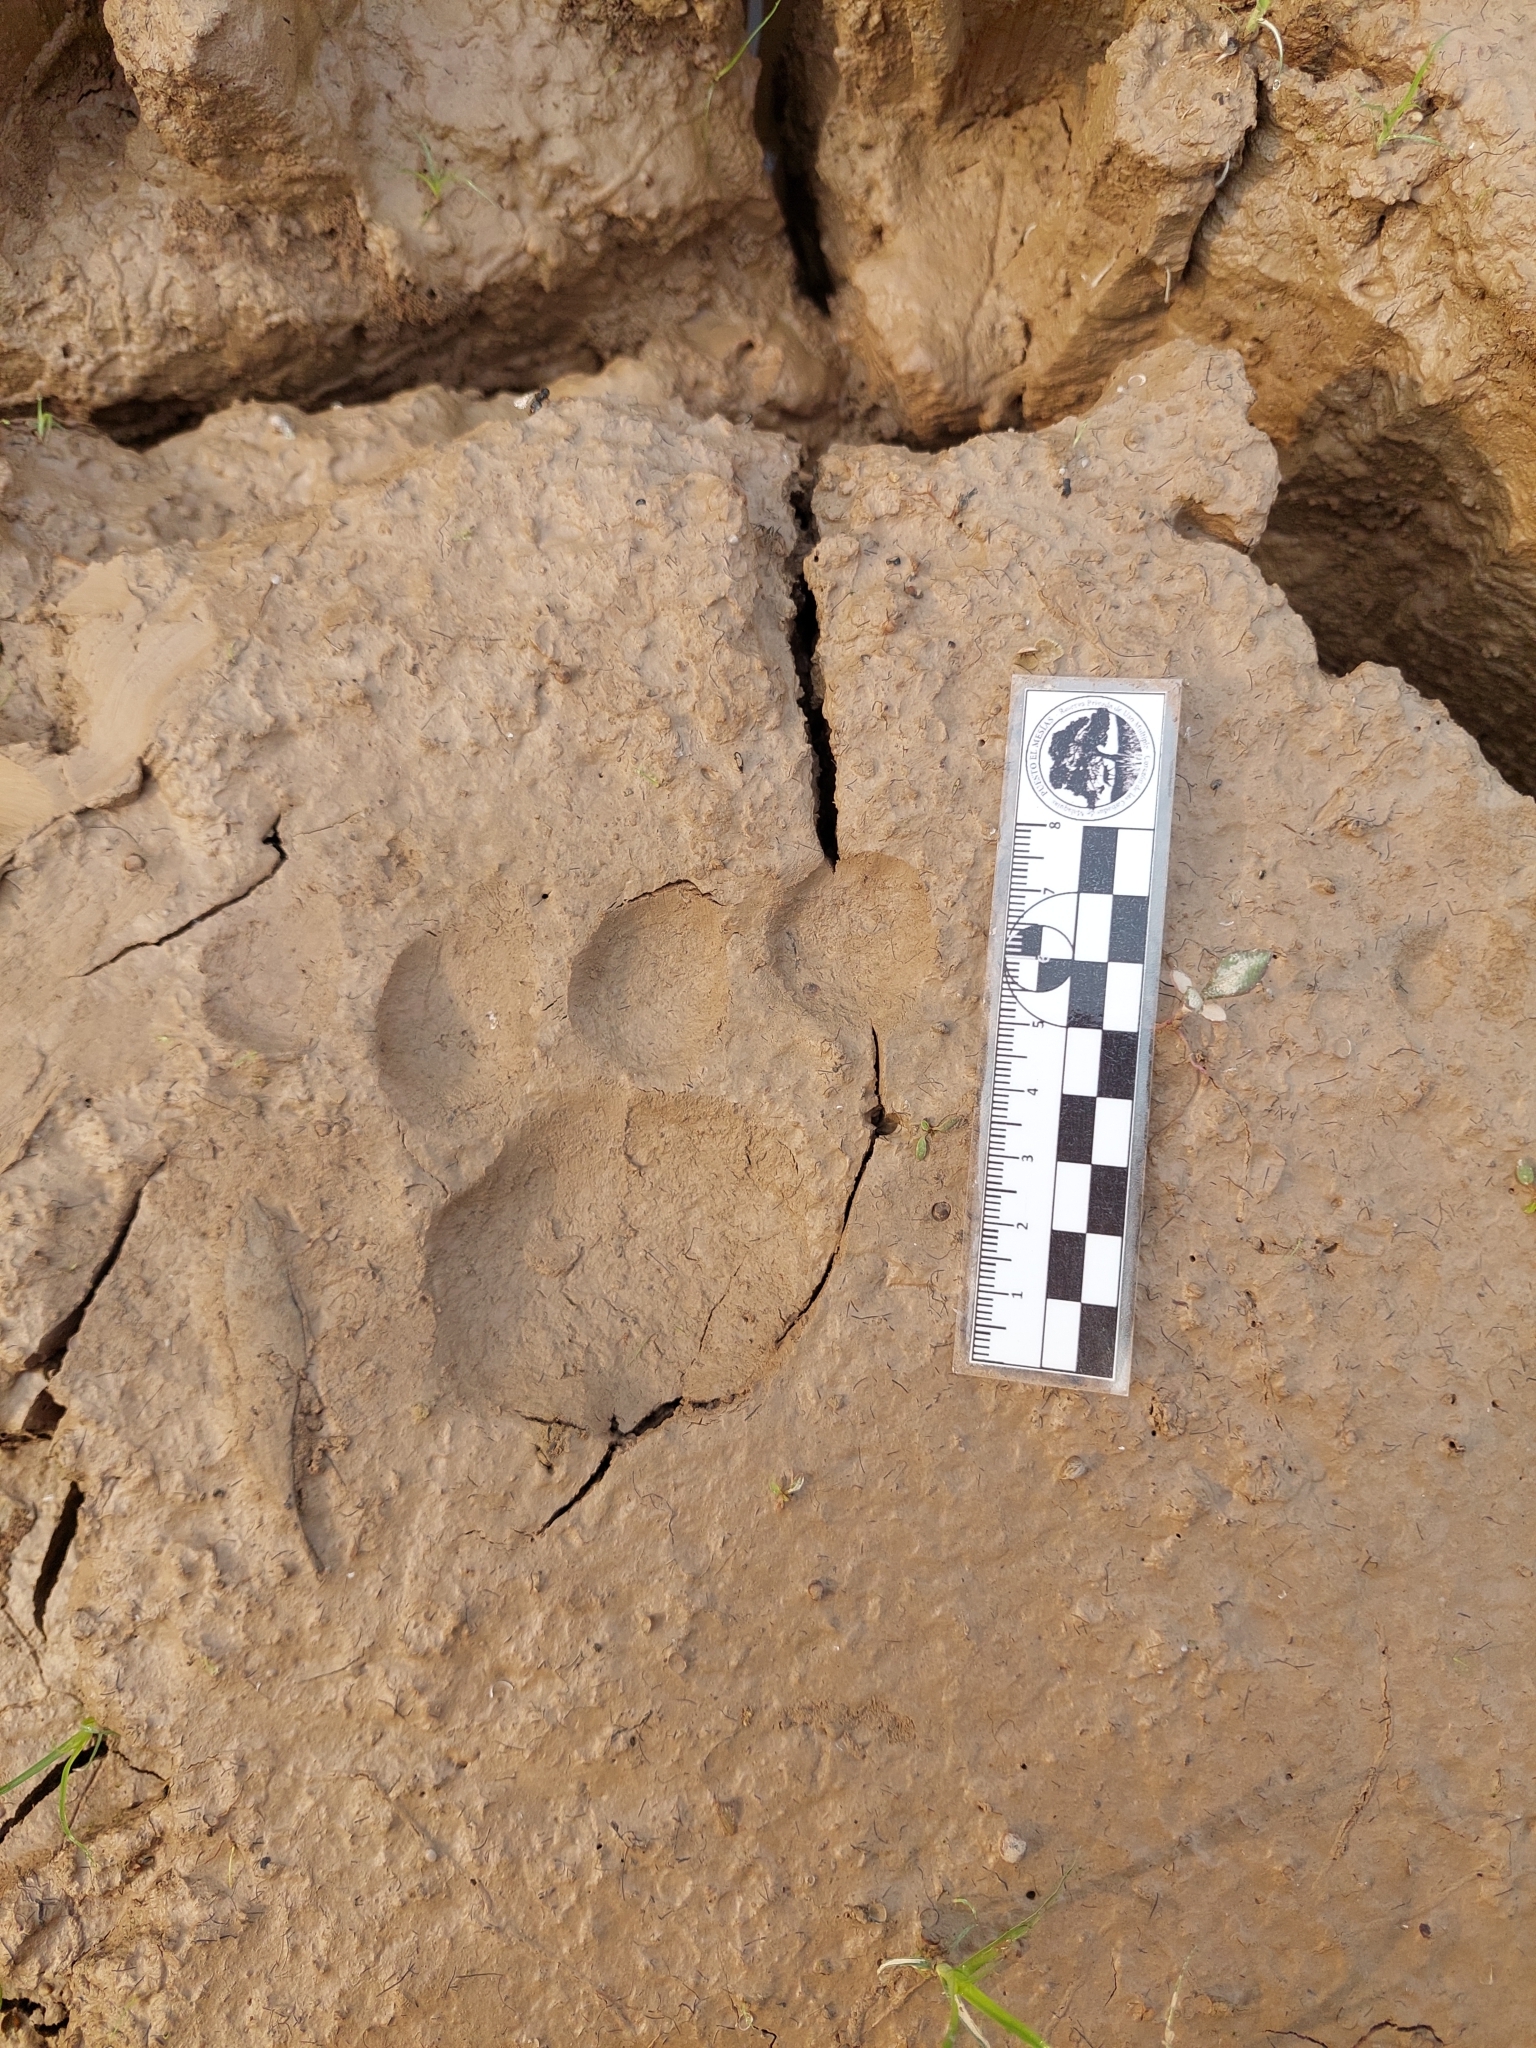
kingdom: Animalia
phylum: Chordata
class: Mammalia
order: Carnivora
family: Felidae
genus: Panthera
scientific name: Panthera onca
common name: Jaguar
